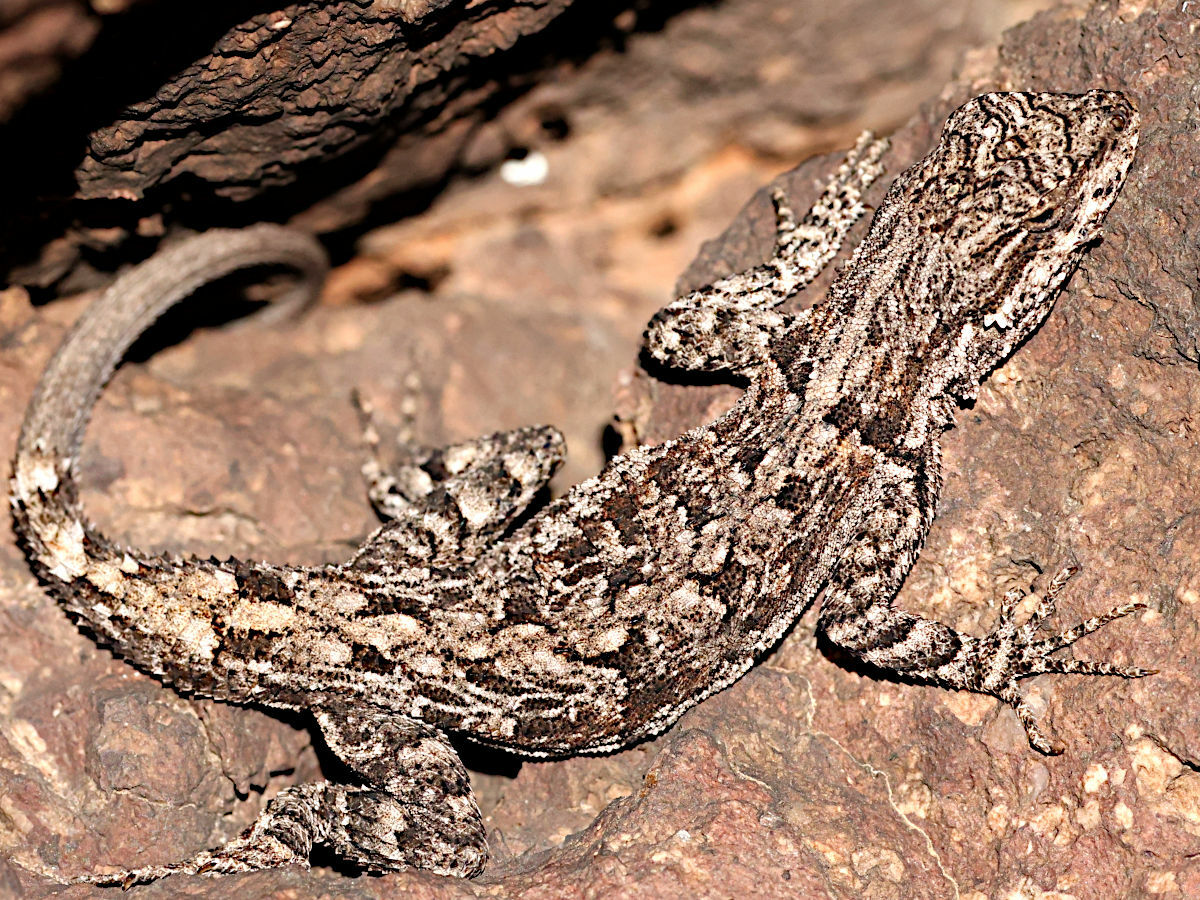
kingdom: Animalia
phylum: Chordata
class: Squamata
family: Phrynosomatidae
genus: Urosaurus
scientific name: Urosaurus ornatus
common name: Ornate tree lizard
